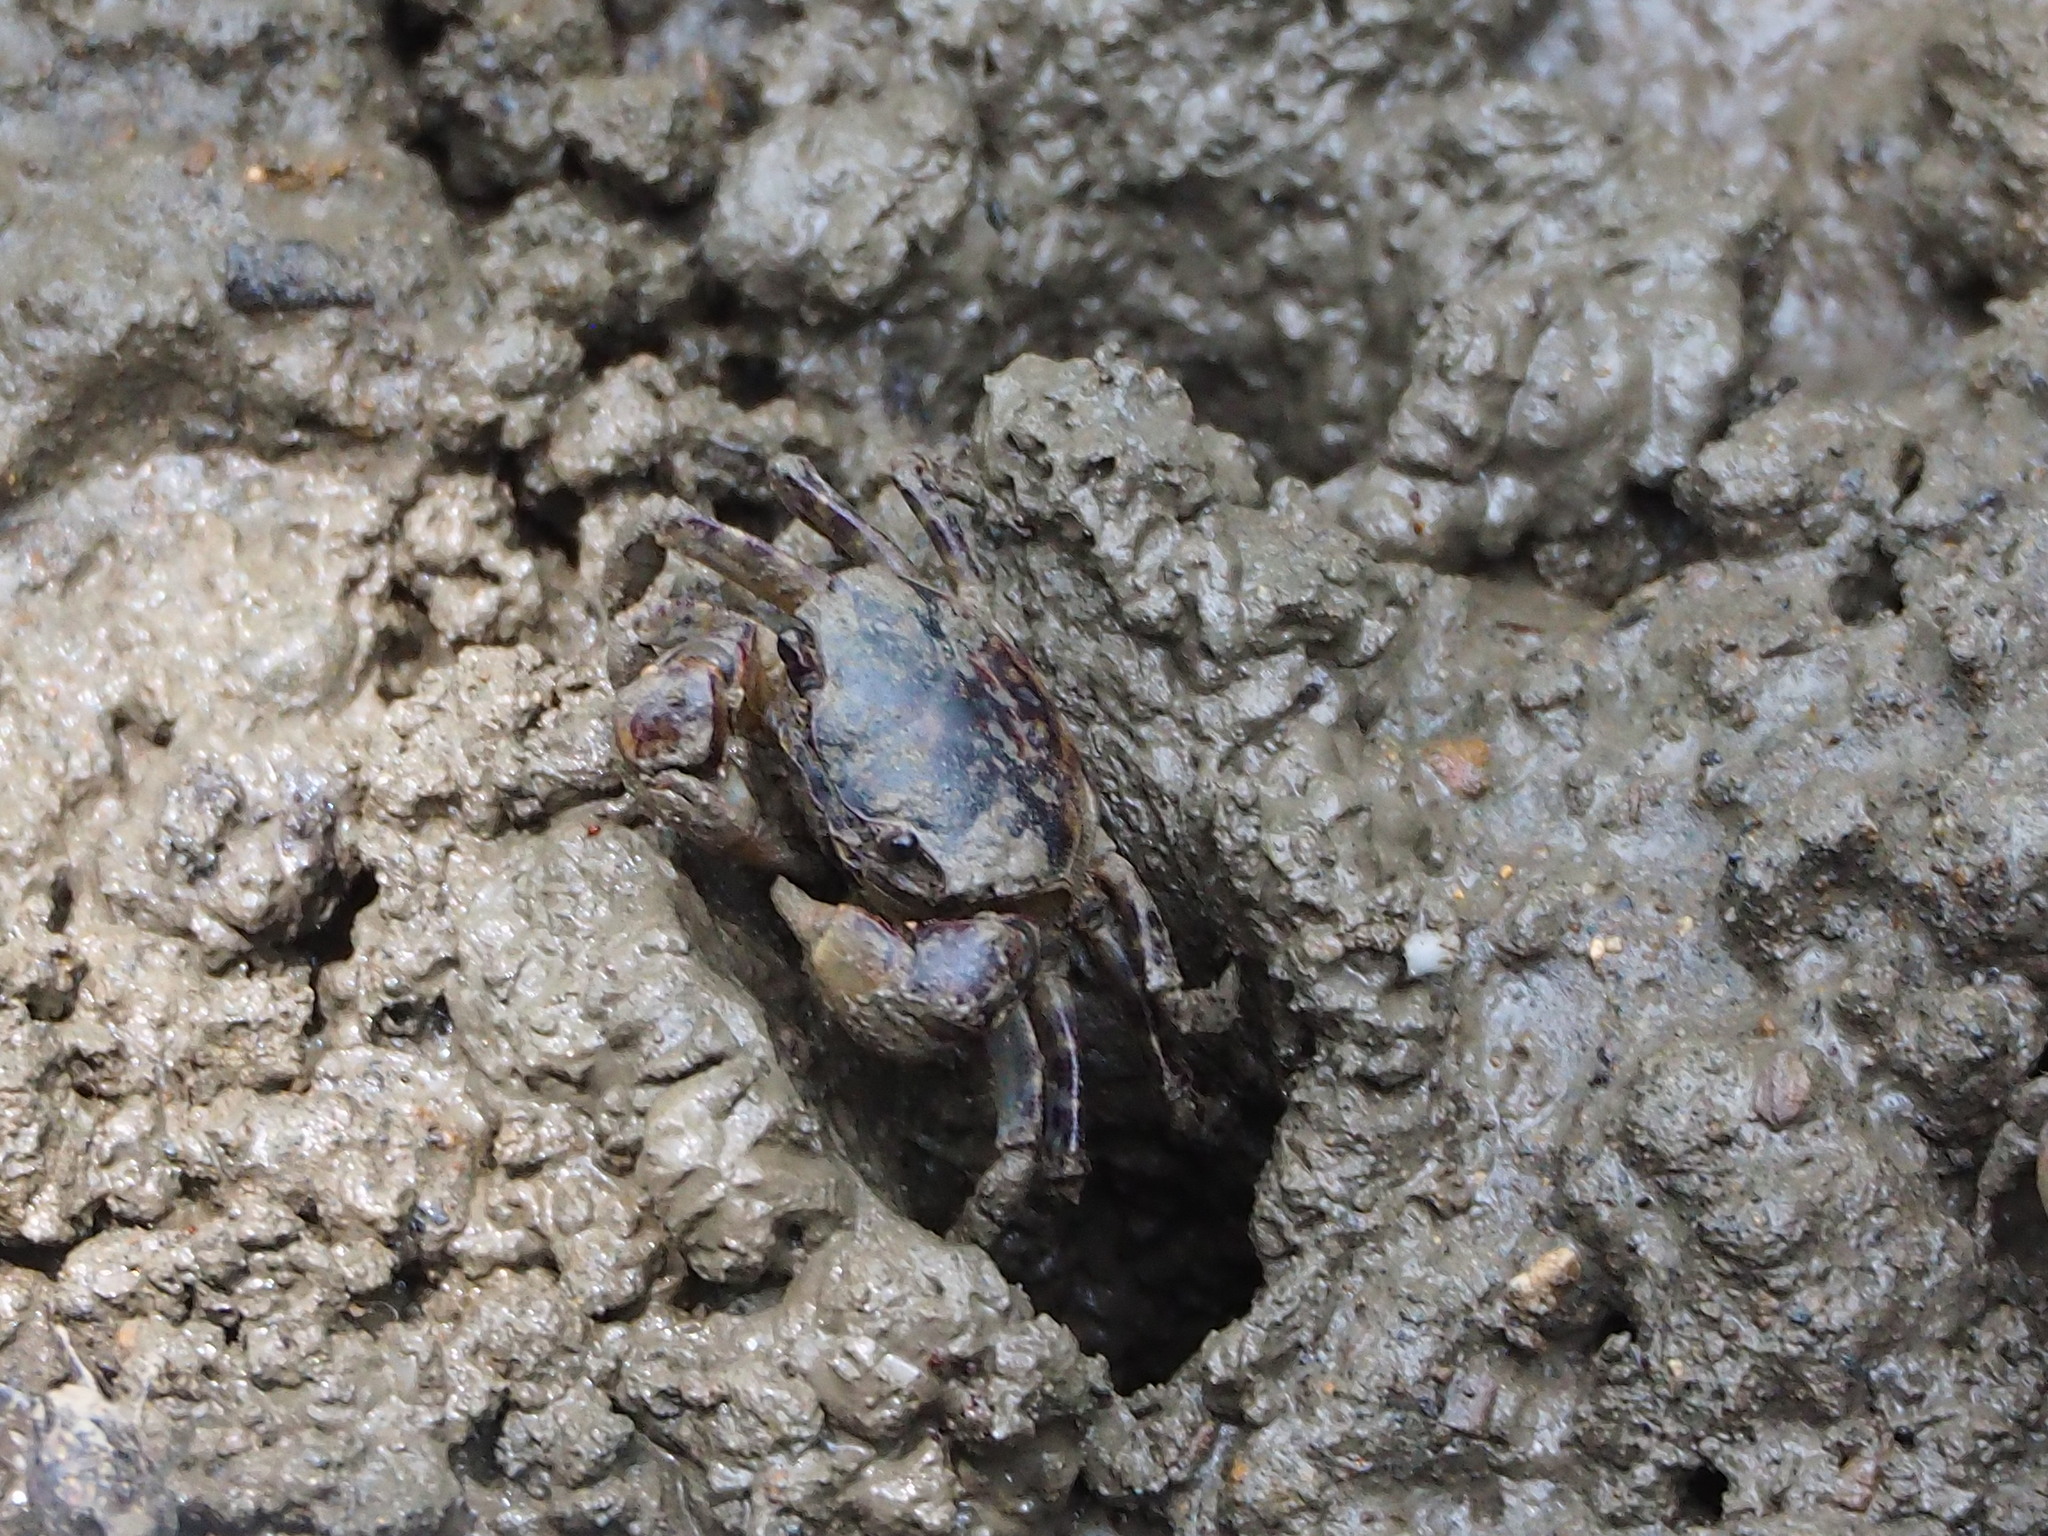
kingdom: Animalia
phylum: Arthropoda
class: Malacostraca
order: Decapoda
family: Varunidae
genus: Pseudohelice
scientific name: Pseudohelice subquadrata
